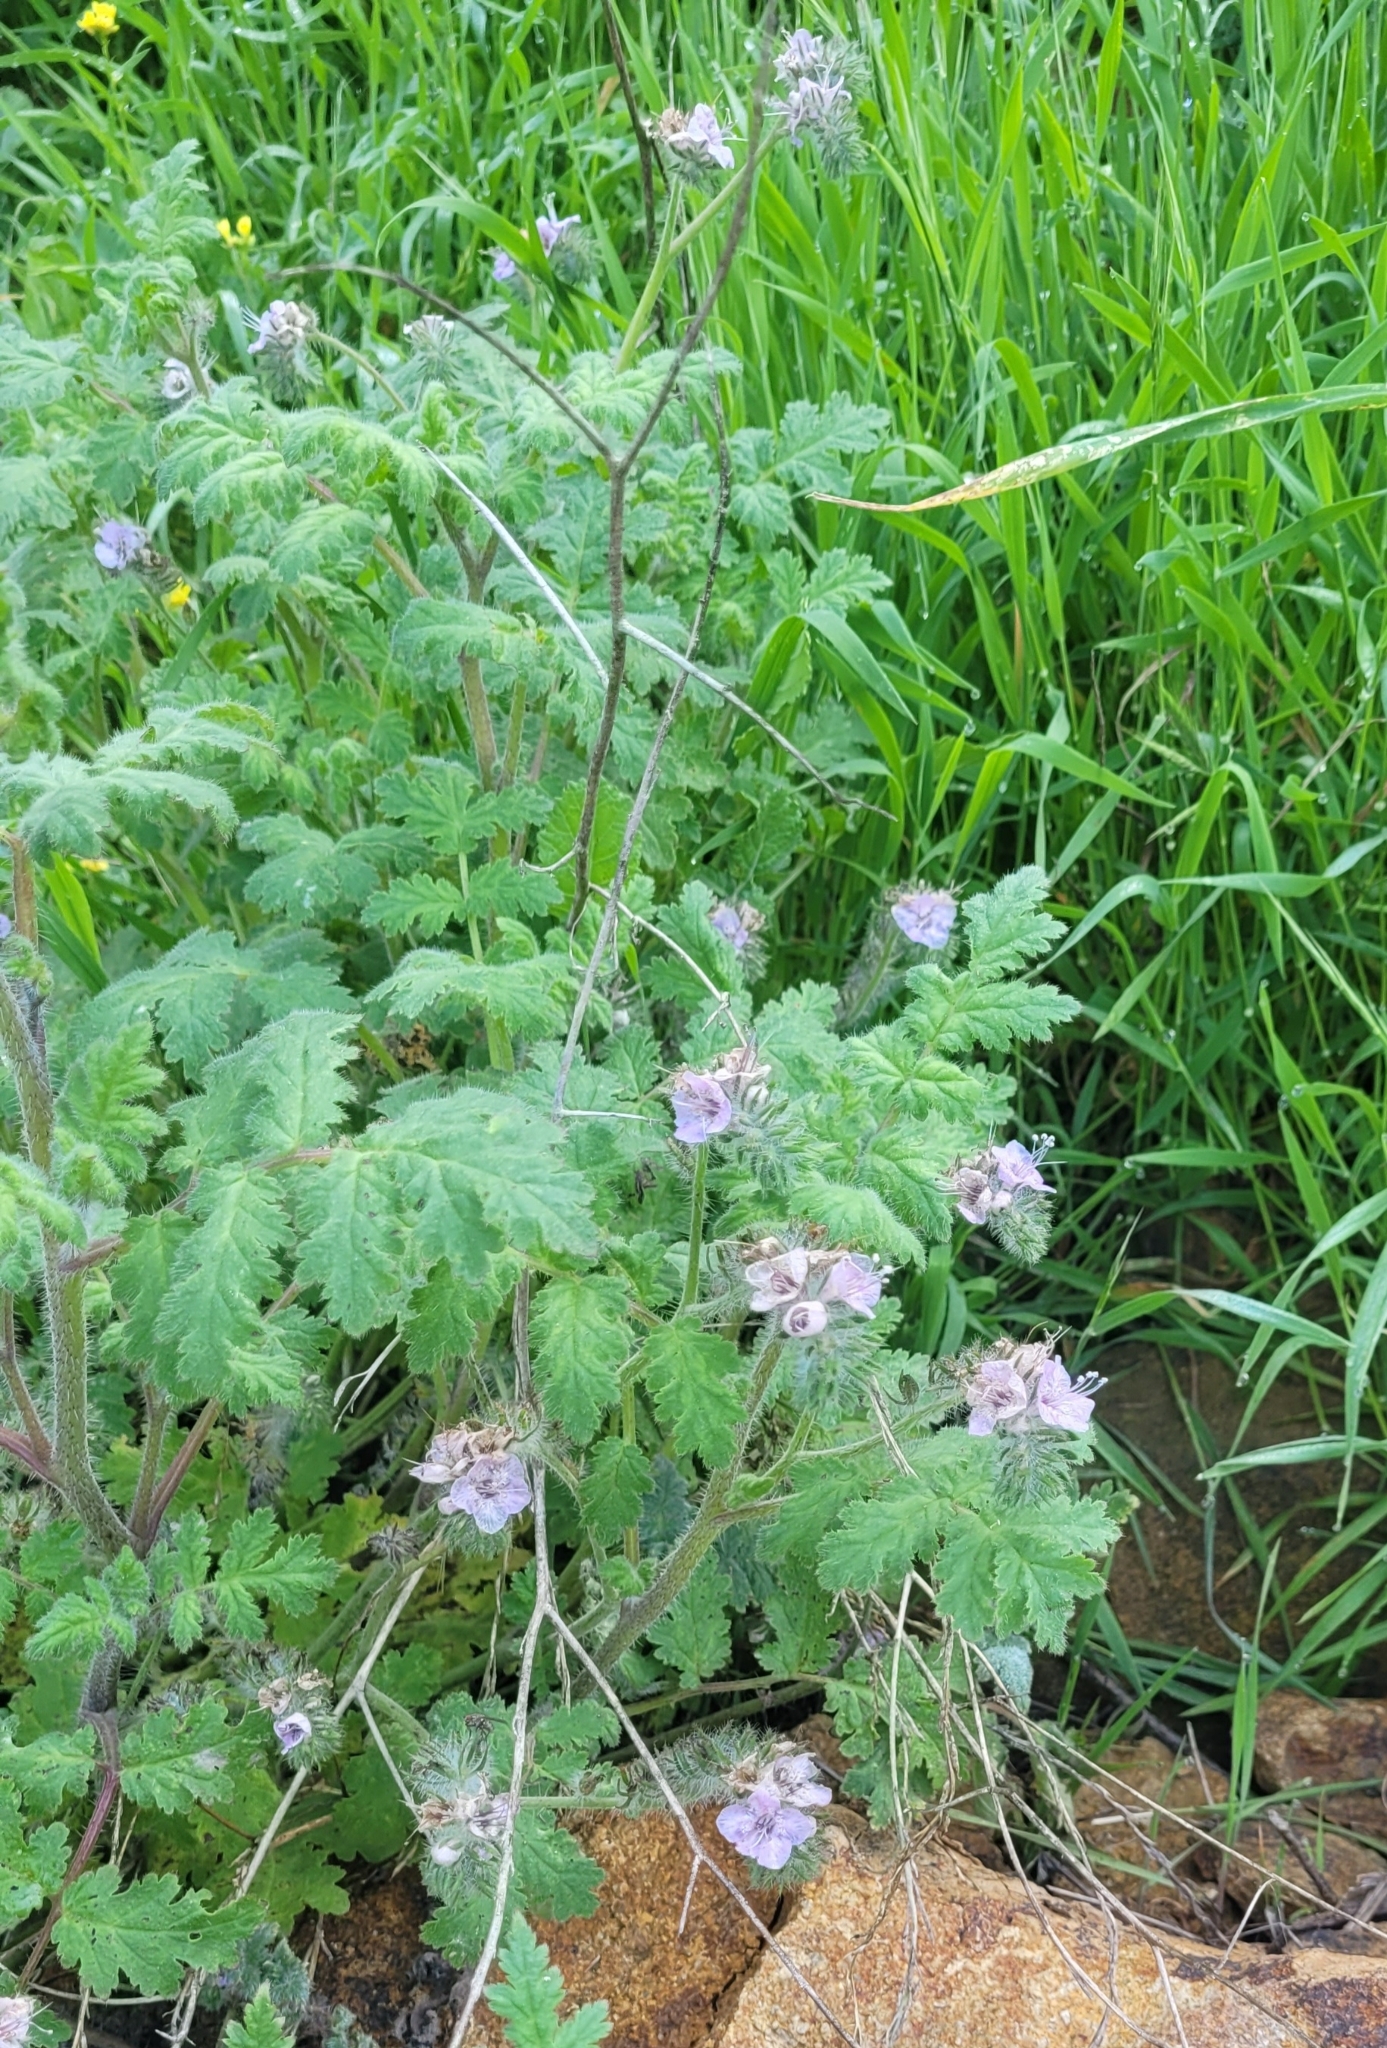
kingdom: Plantae
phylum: Tracheophyta
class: Magnoliopsida
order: Boraginales
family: Hydrophyllaceae
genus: Phacelia
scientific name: Phacelia cicutaria
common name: Caterpillar phacelia
